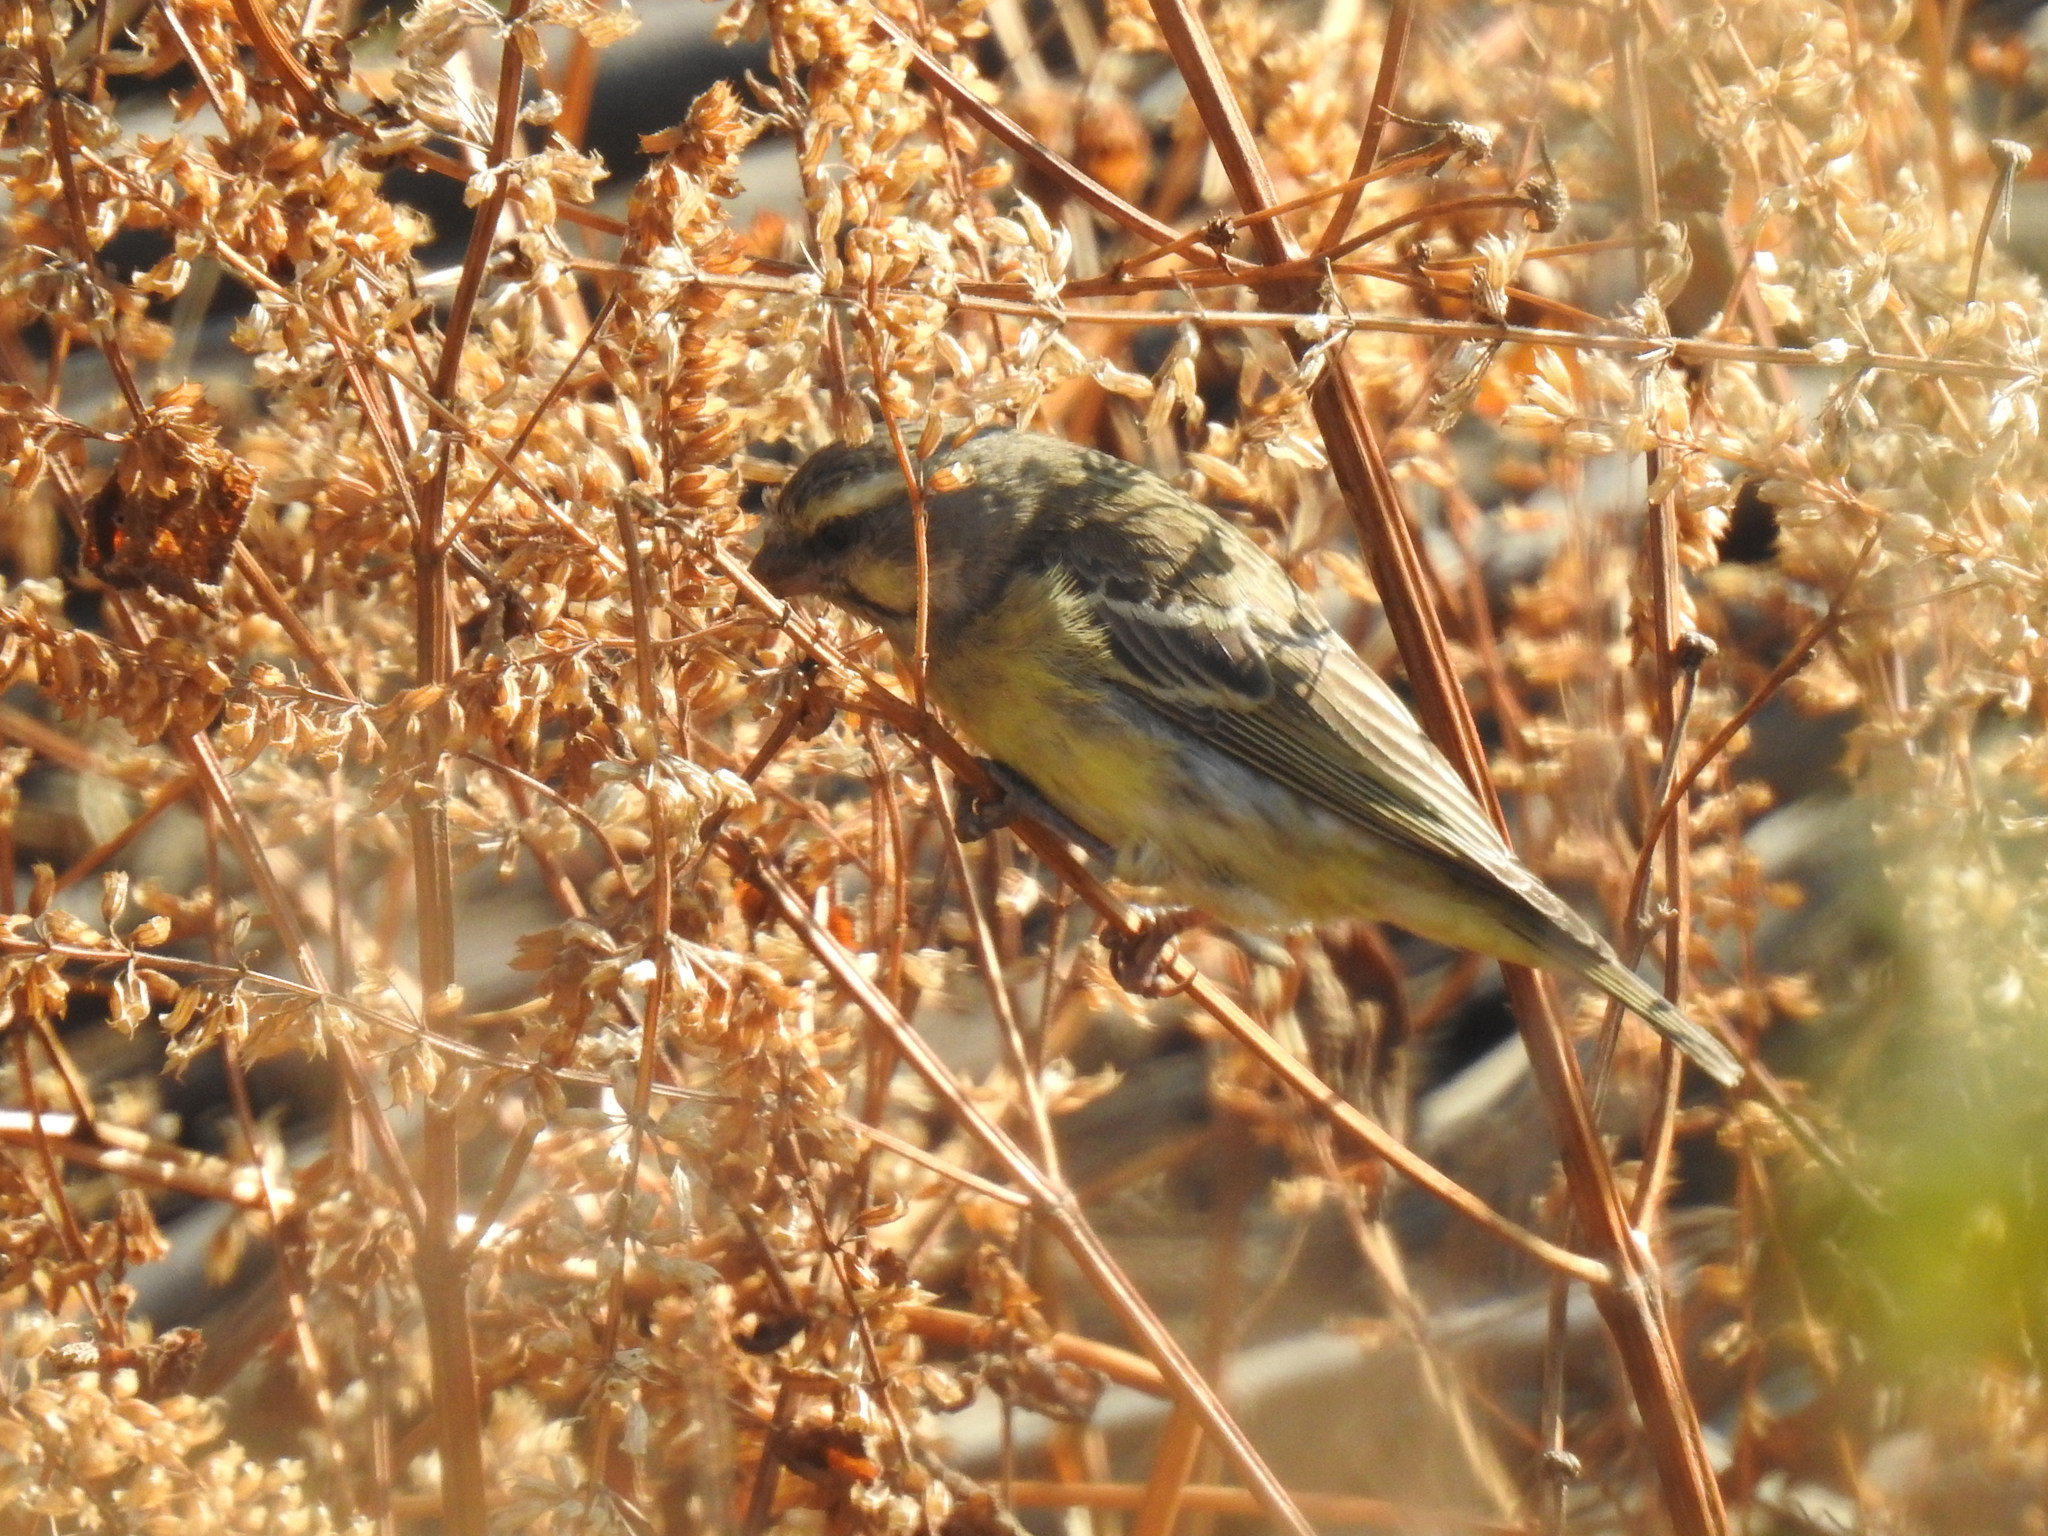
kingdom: Animalia
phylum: Chordata
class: Aves
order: Passeriformes
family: Fringillidae
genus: Crithagra
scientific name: Crithagra mozambica
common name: Yellow-fronted canary
